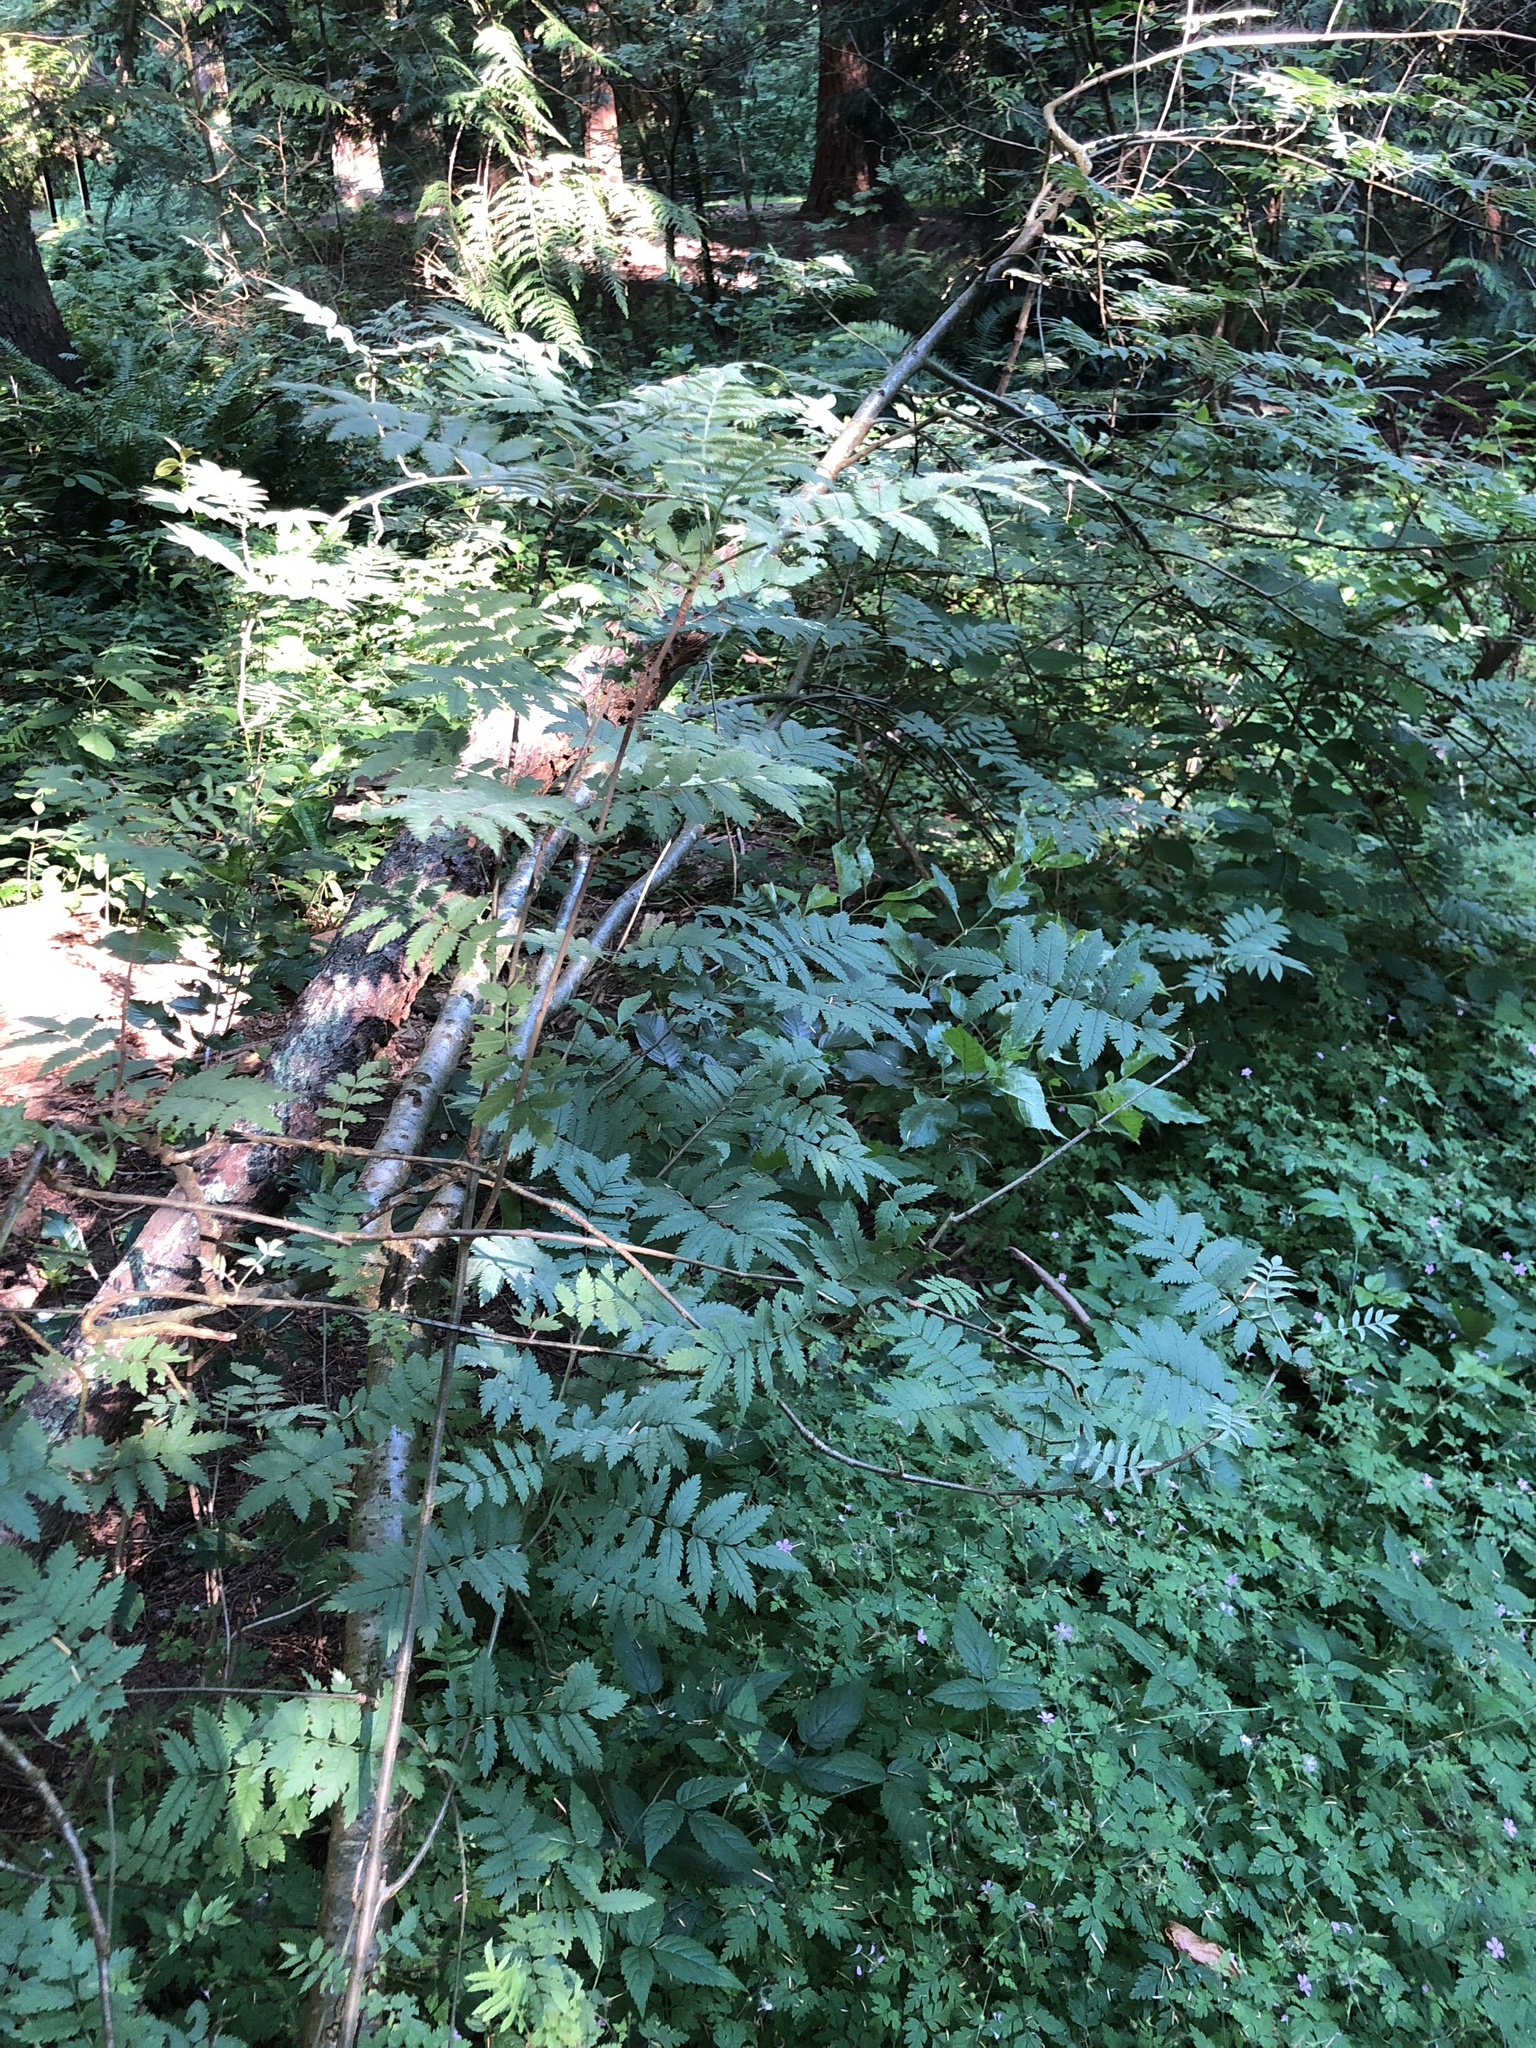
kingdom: Plantae
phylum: Tracheophyta
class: Magnoliopsida
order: Rosales
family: Rosaceae
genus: Sorbus
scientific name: Sorbus aucuparia
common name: Rowan
